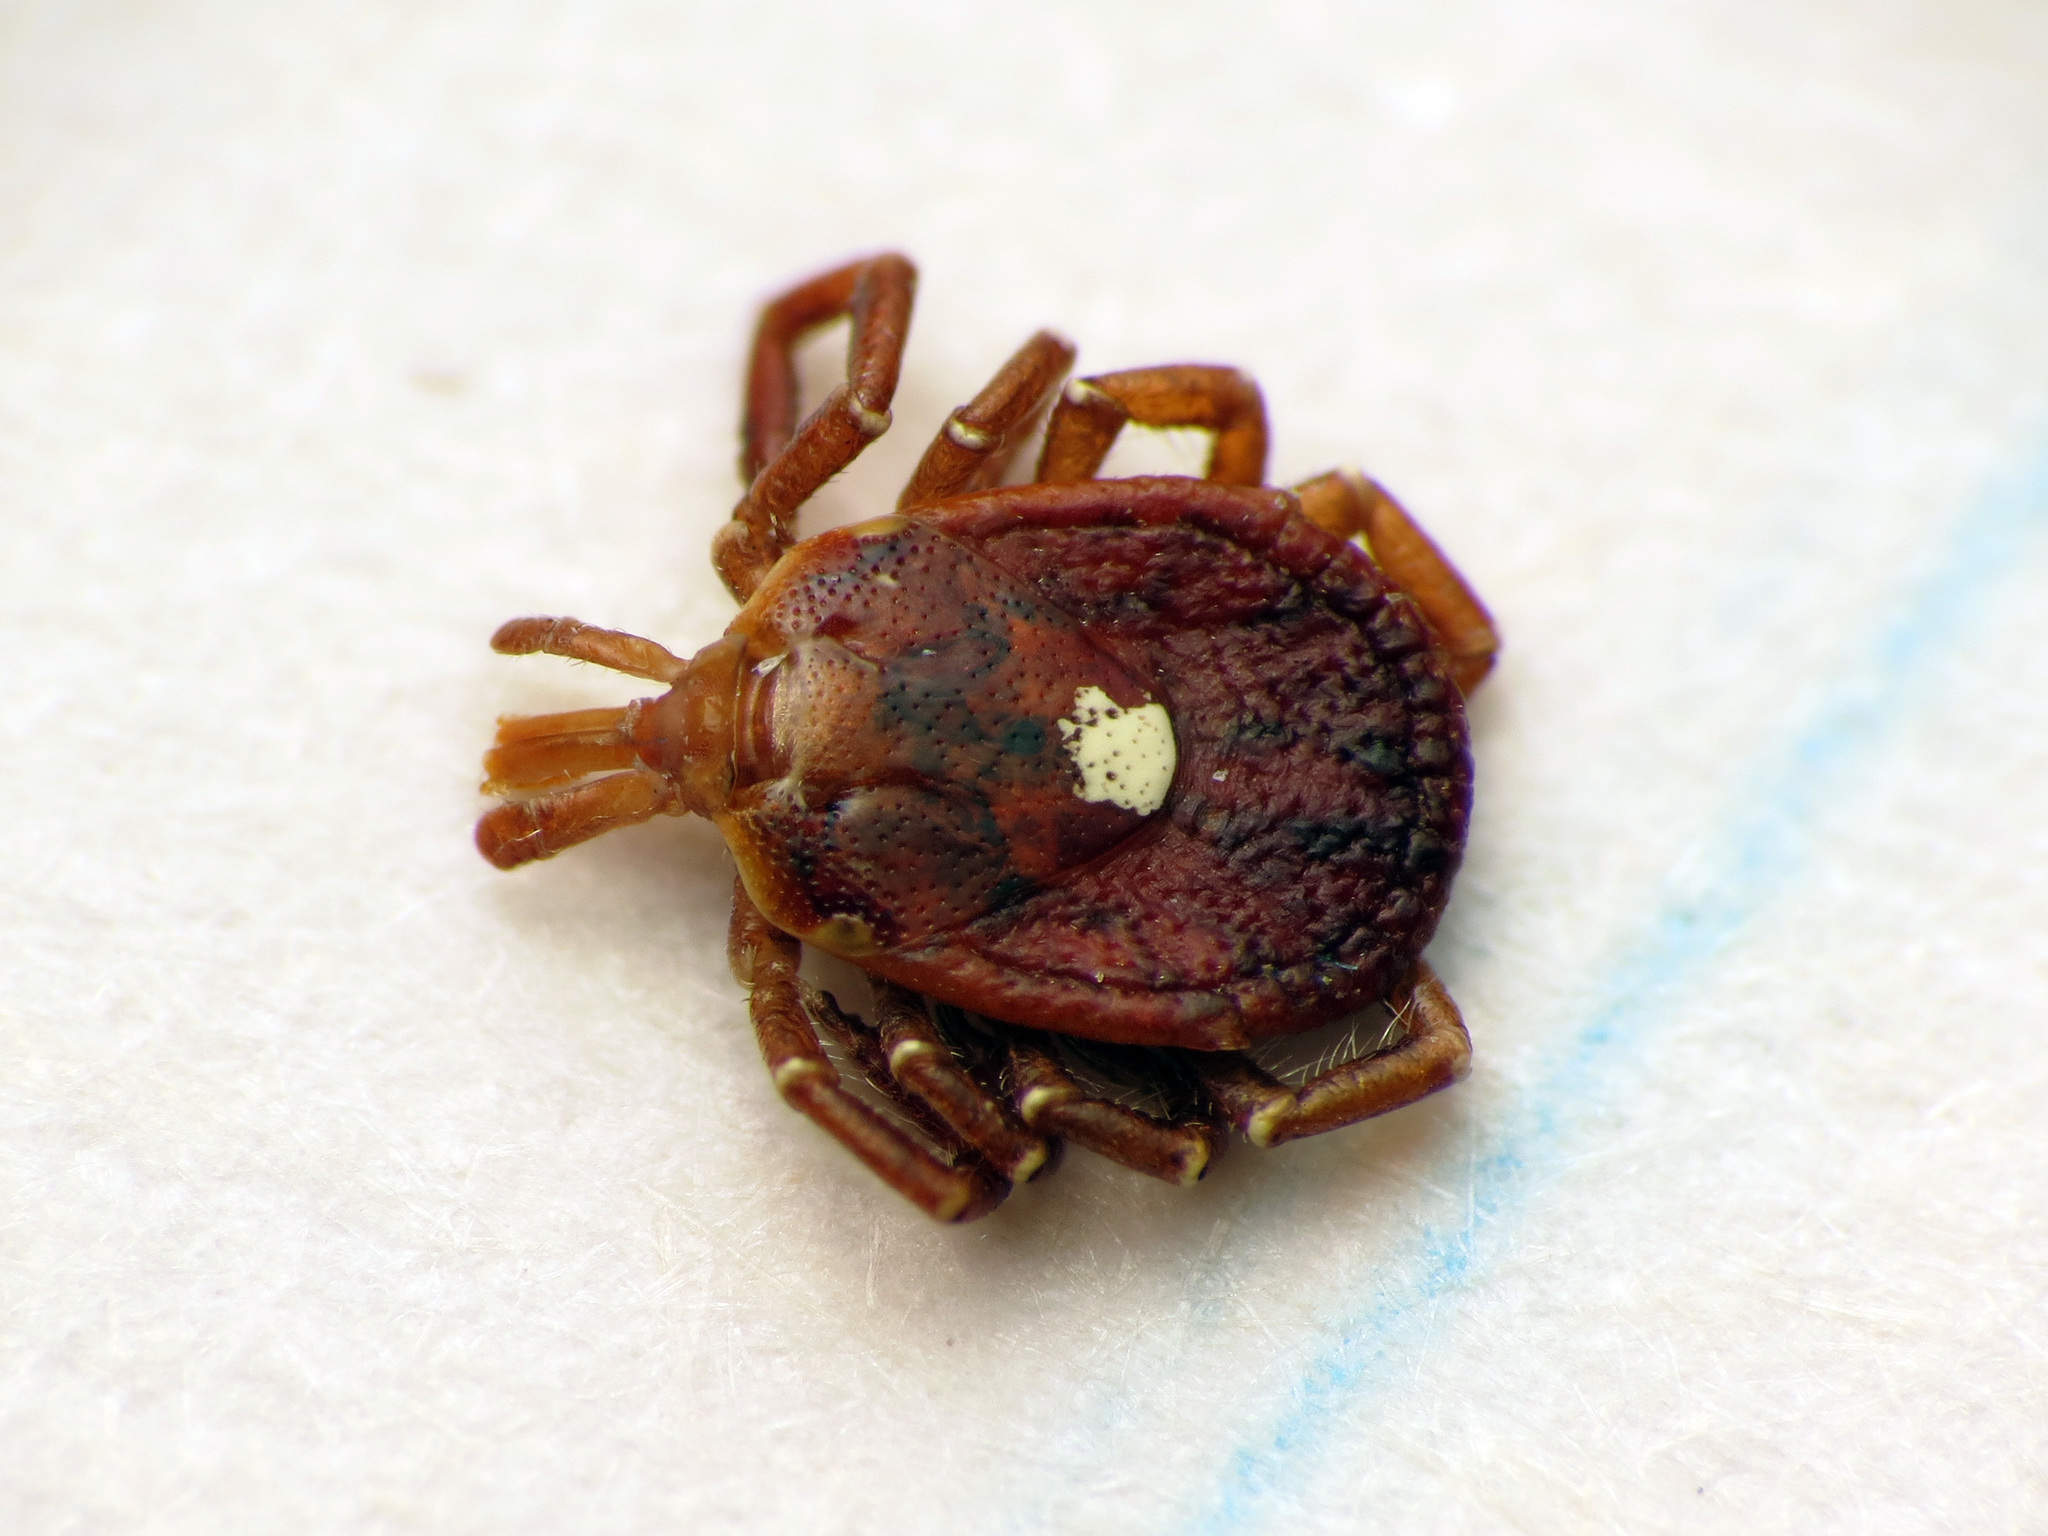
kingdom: Animalia
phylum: Arthropoda
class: Arachnida
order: Ixodida
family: Ixodidae
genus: Amblyomma
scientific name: Amblyomma americanum
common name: Lone star tick
